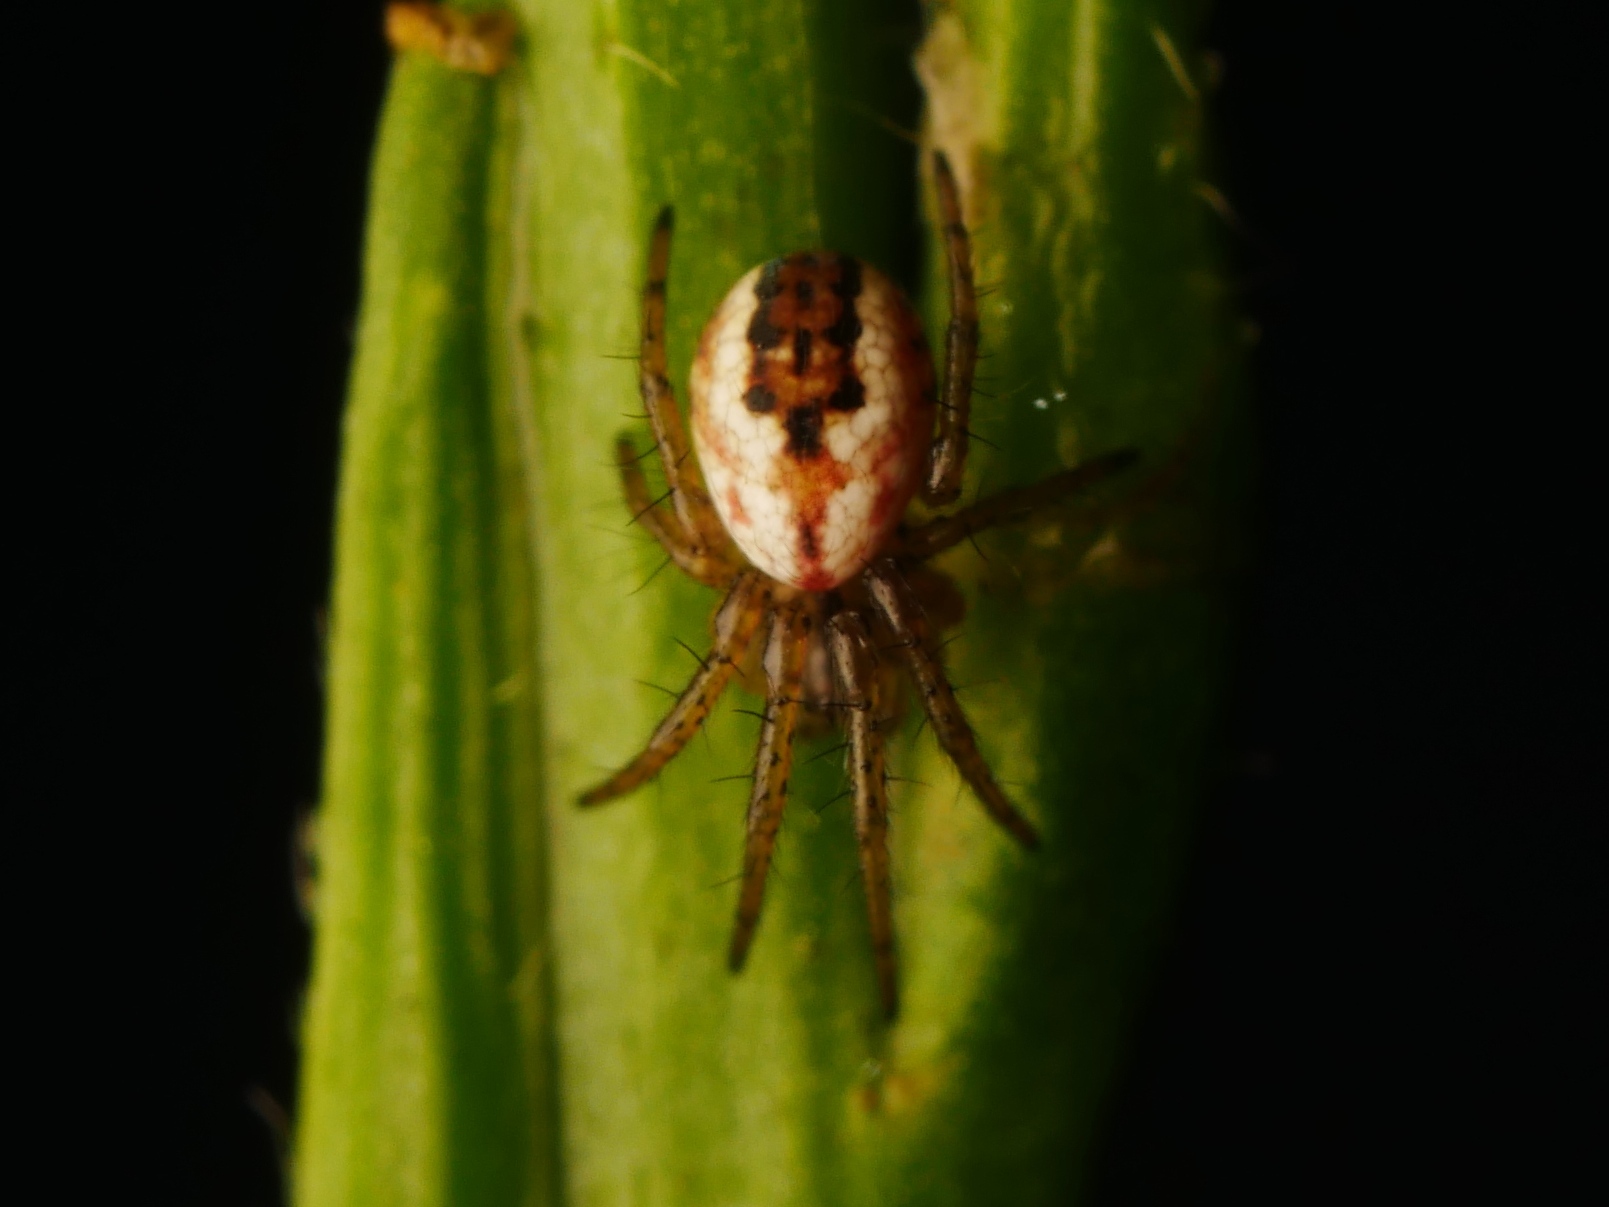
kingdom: Animalia
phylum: Arthropoda
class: Arachnida
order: Araneae
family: Araneidae
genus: Mangora
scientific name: Mangora acalypha
